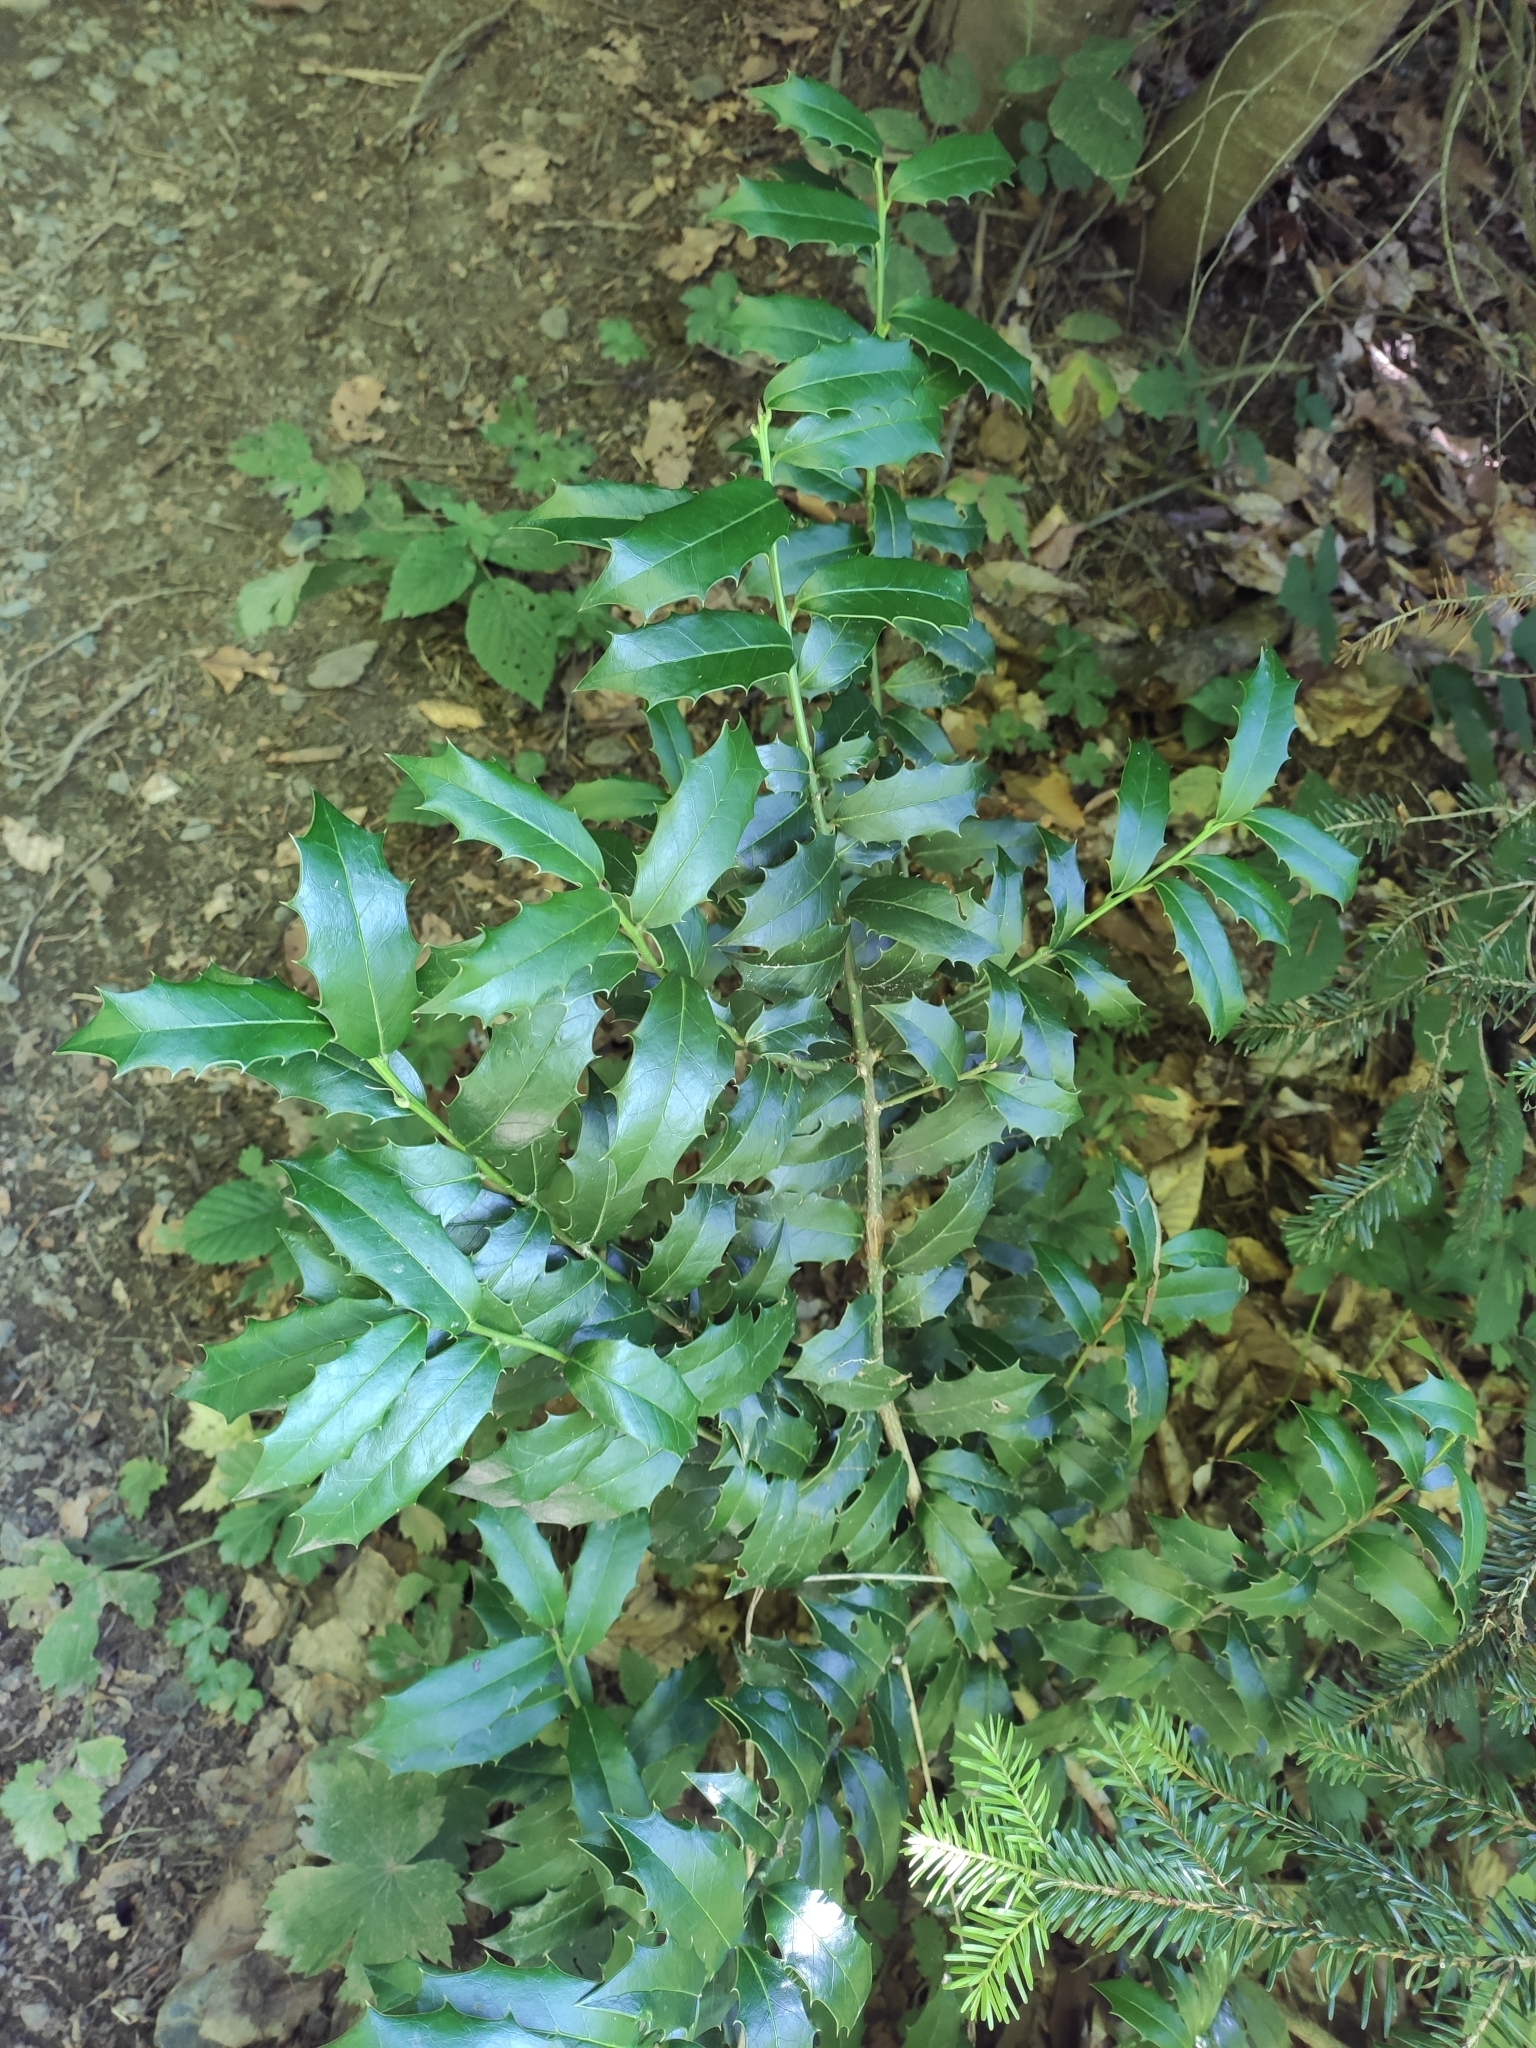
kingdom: Plantae
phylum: Tracheophyta
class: Magnoliopsida
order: Aquifoliales
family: Aquifoliaceae
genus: Ilex
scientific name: Ilex colchica
